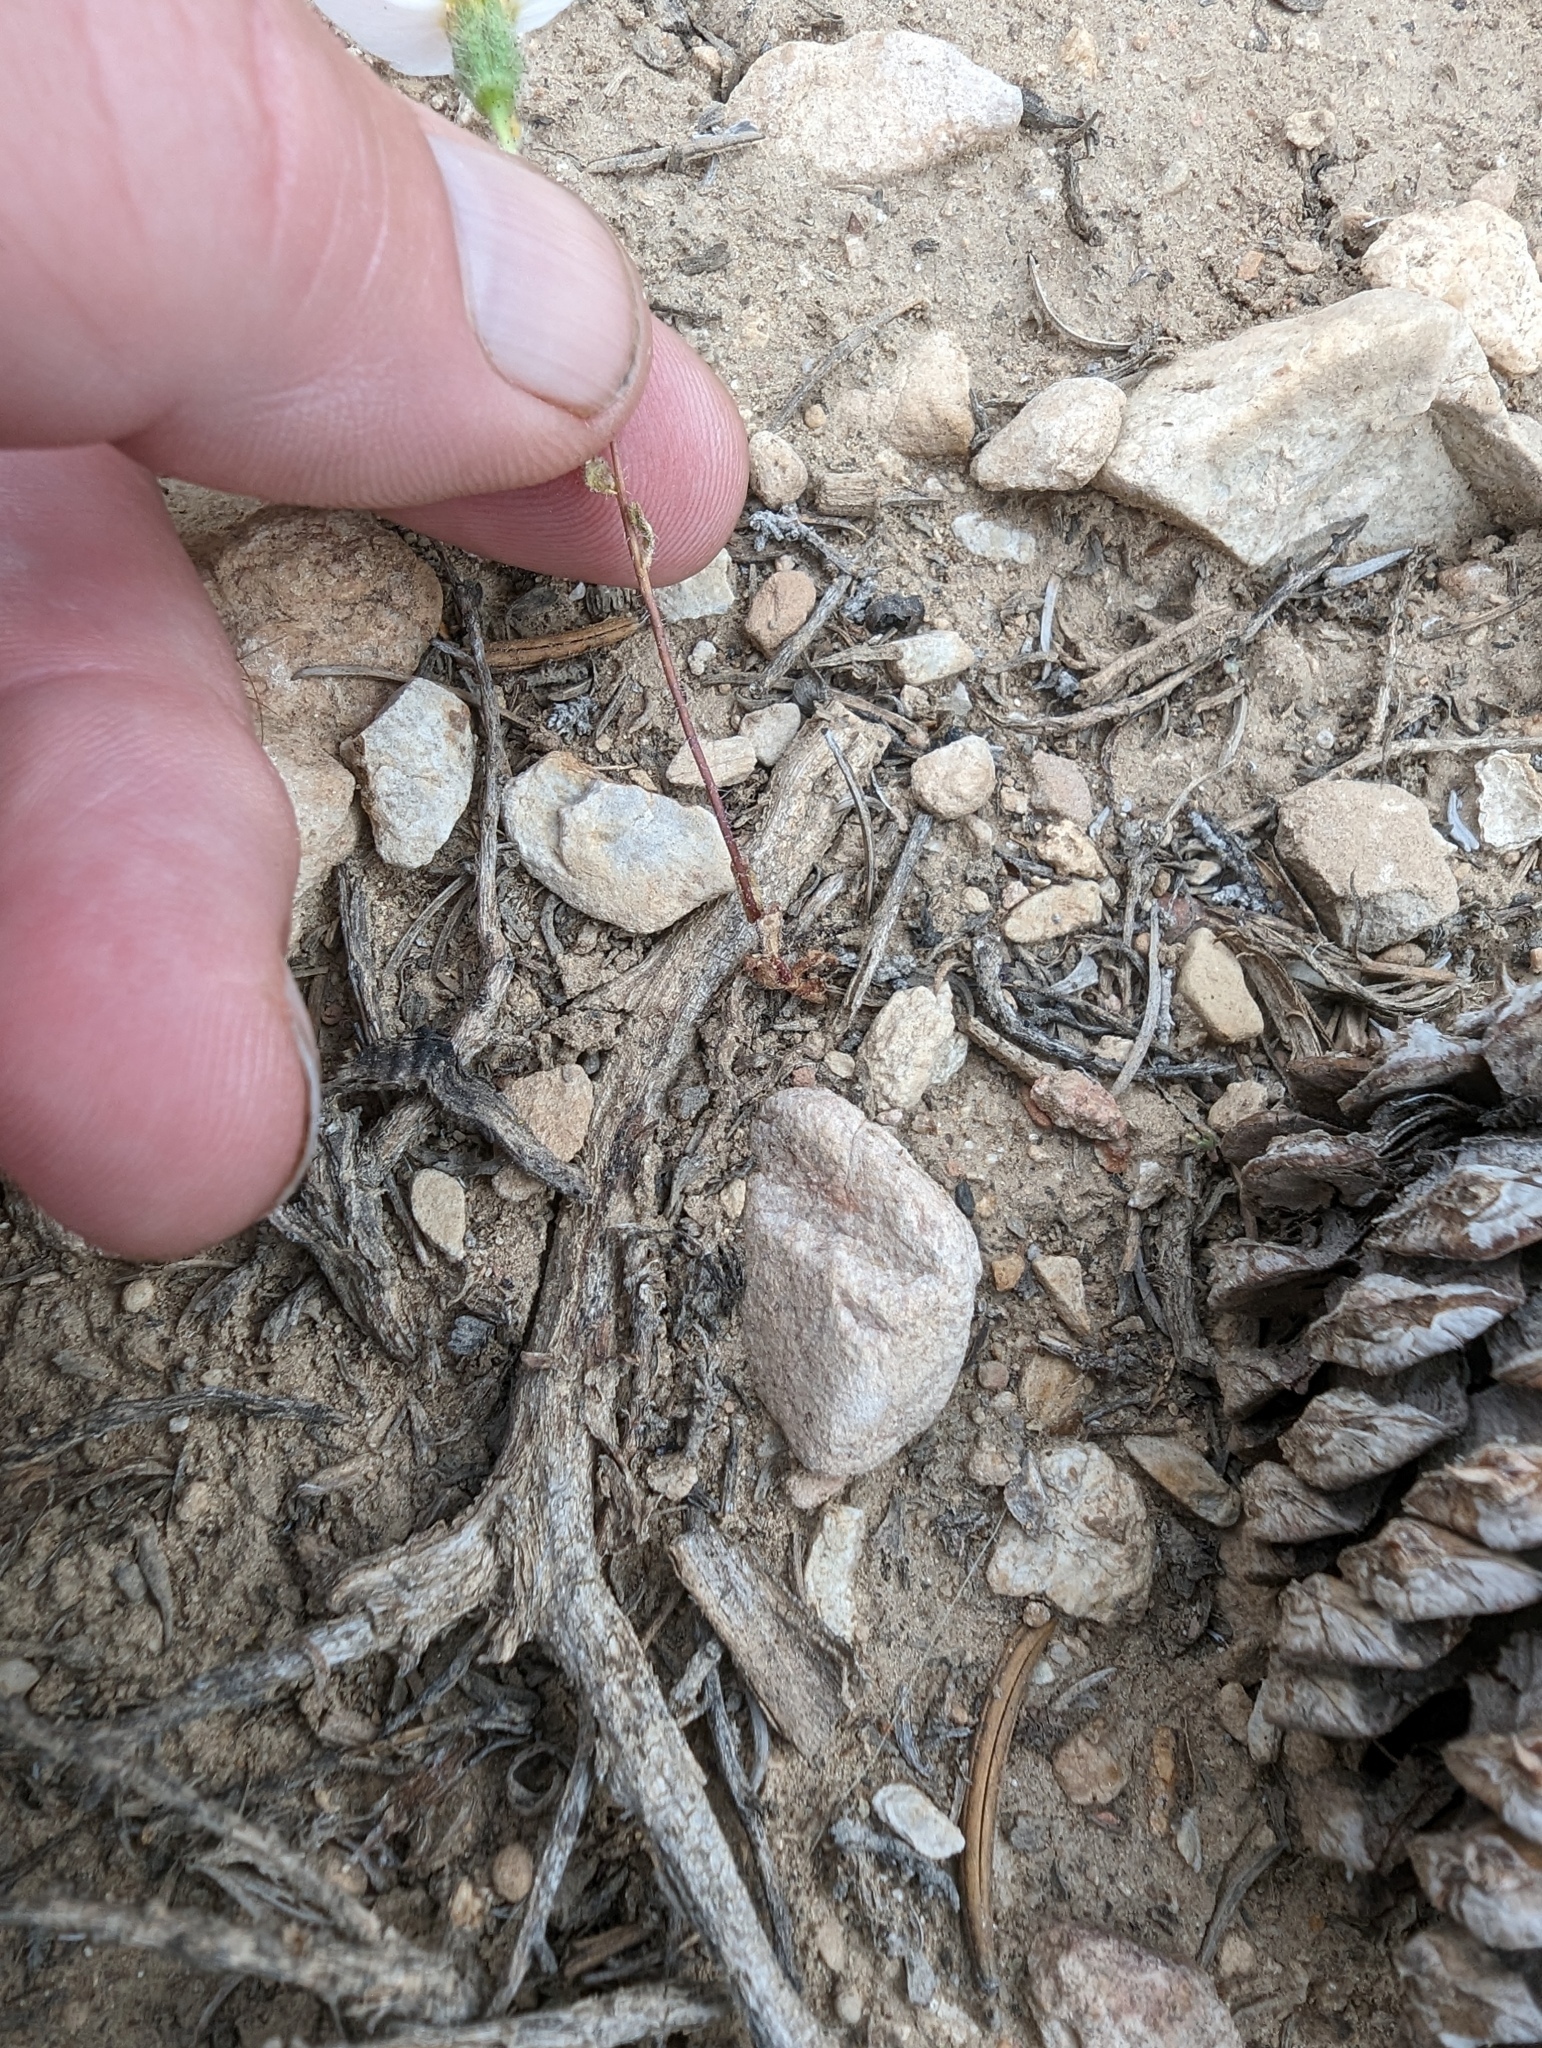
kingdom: Plantae
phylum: Tracheophyta
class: Magnoliopsida
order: Asterales
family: Asteraceae
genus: Layia
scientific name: Layia glandulosa
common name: White layia
